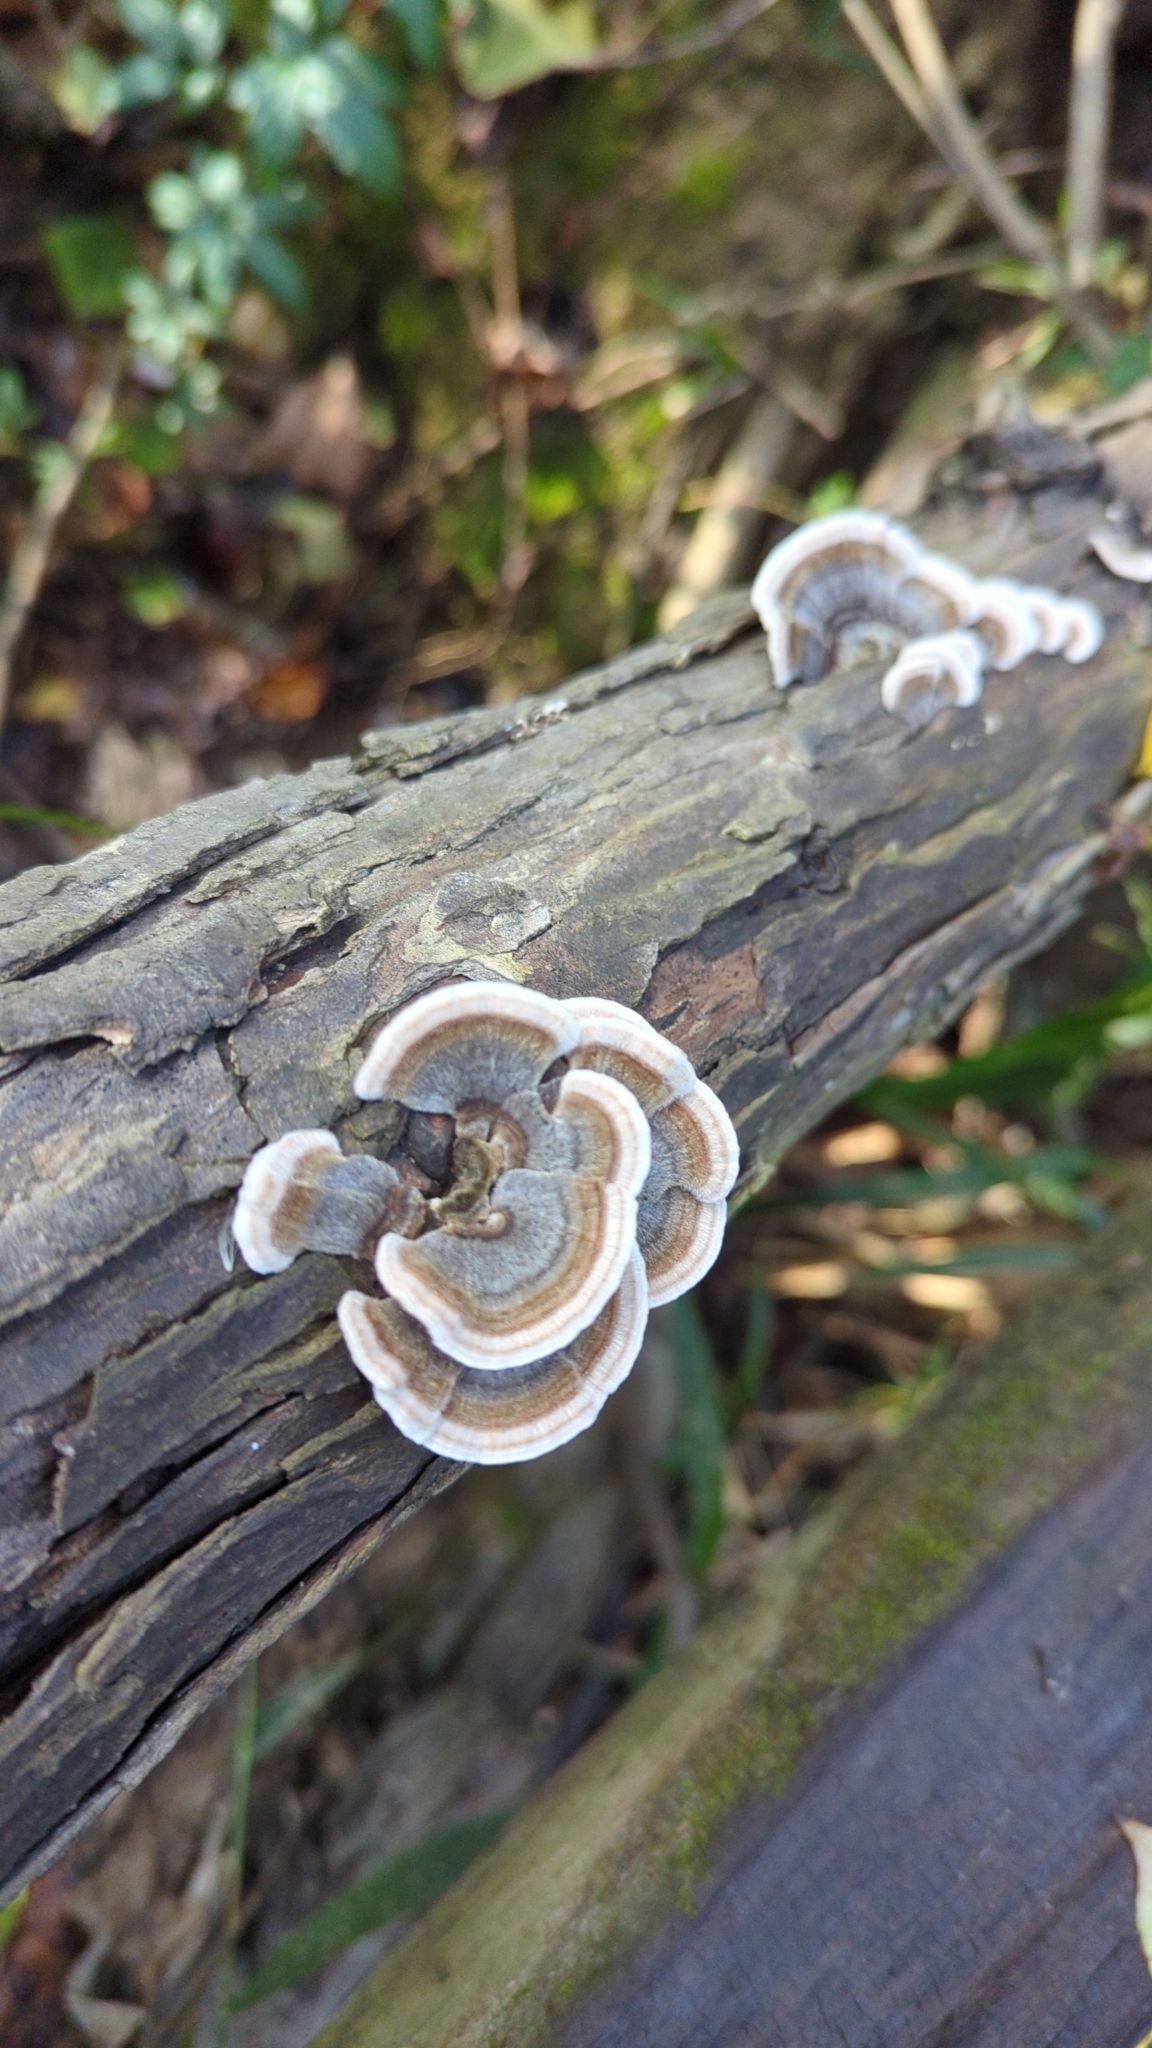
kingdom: Fungi
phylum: Basidiomycota
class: Agaricomycetes
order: Polyporales
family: Polyporaceae
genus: Trametes
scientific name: Trametes versicolor
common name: Turkeytail
